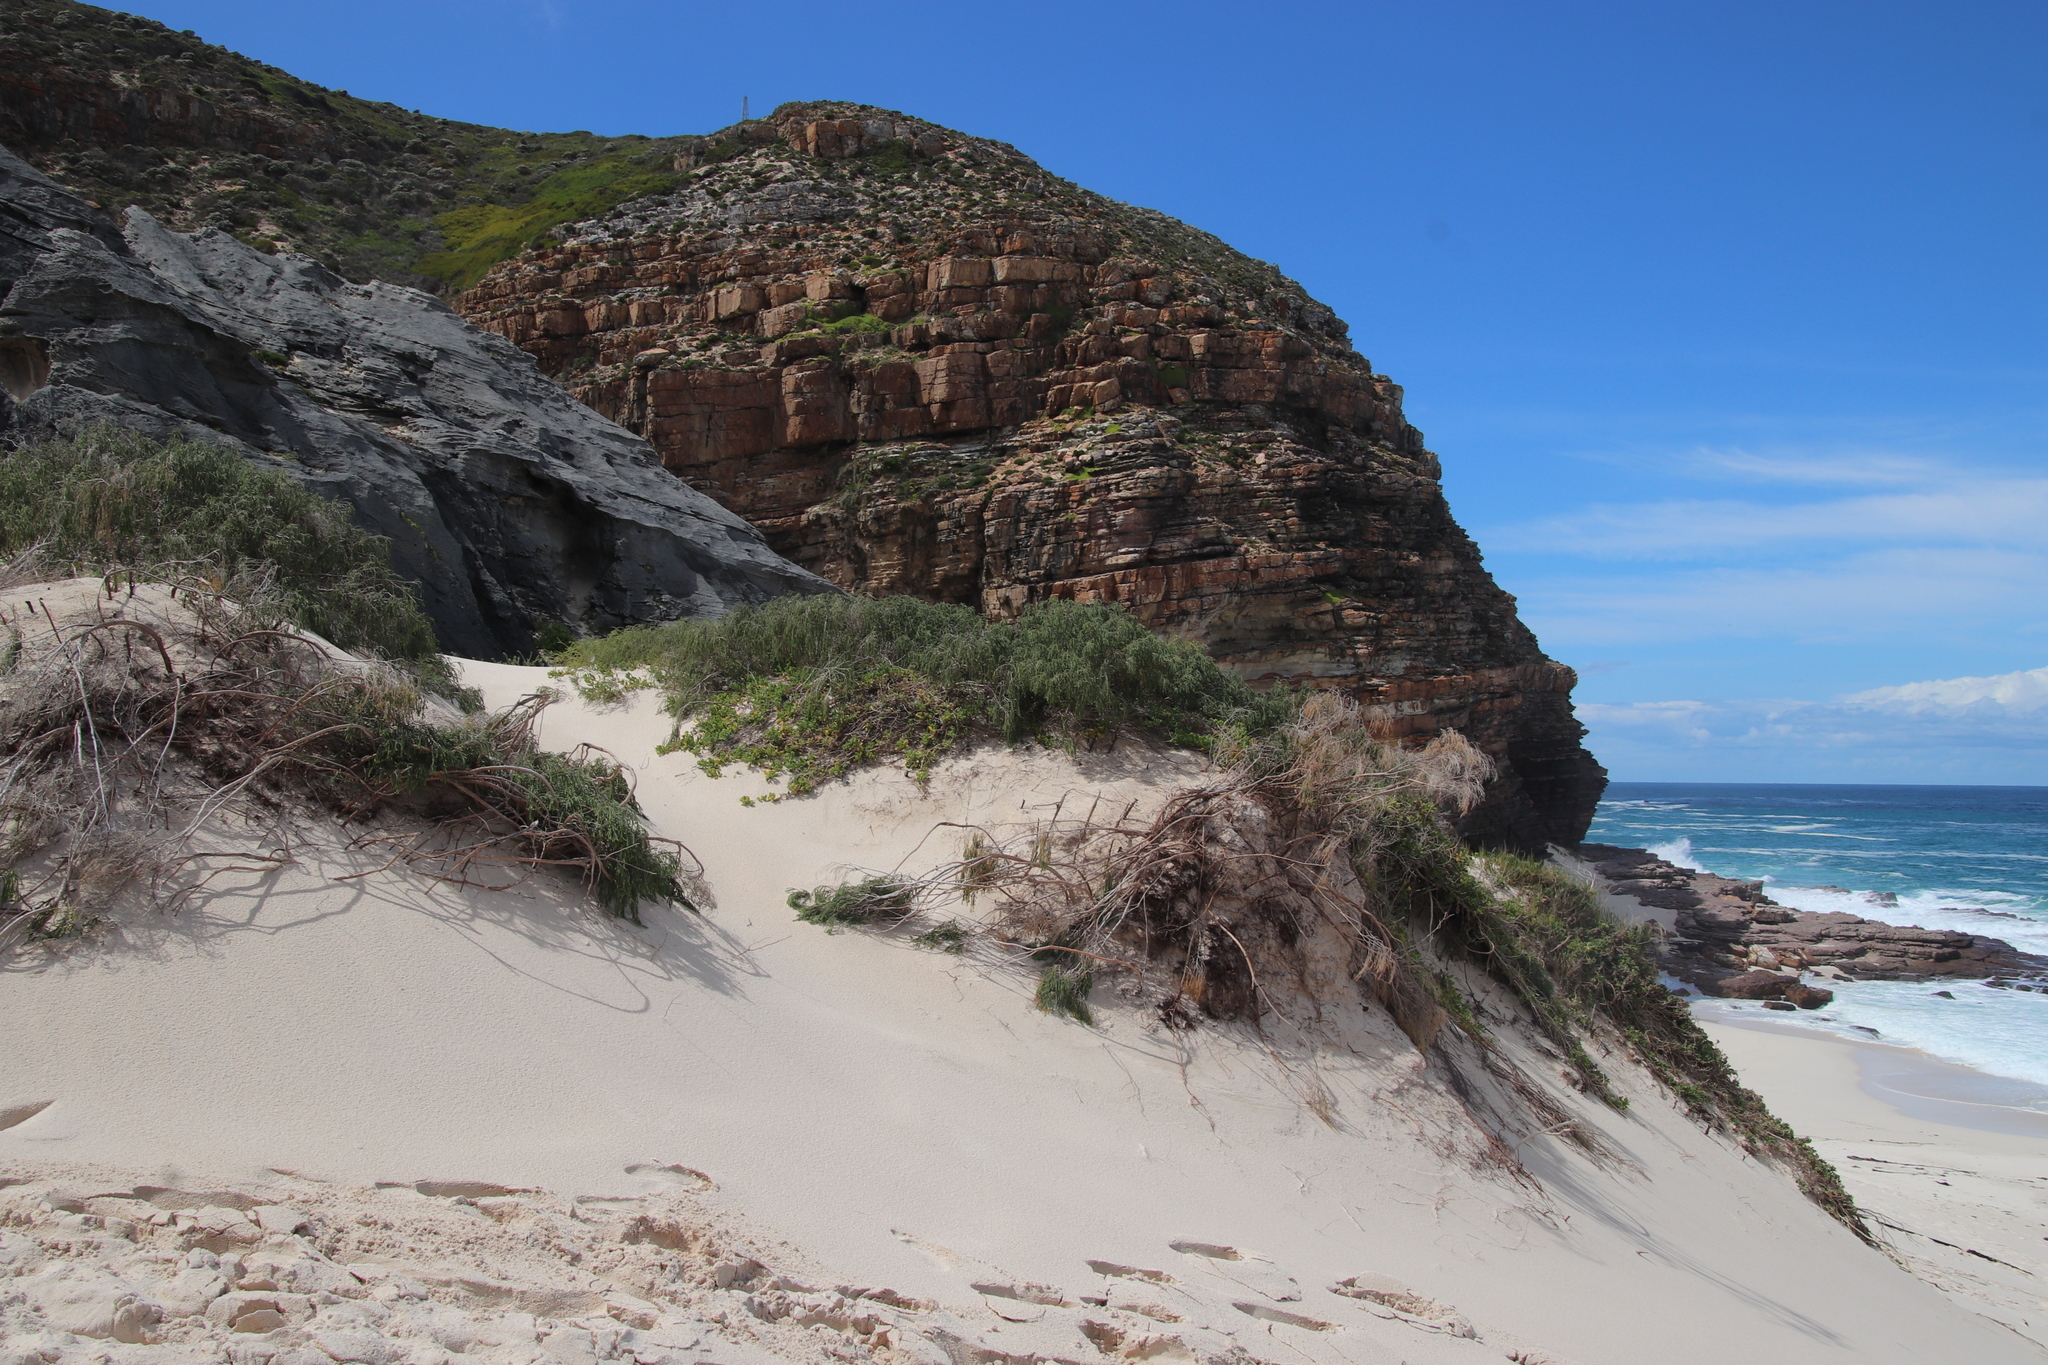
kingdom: Plantae
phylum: Tracheophyta
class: Magnoliopsida
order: Malvales
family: Thymelaeaceae
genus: Passerina
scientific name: Passerina ericoides
